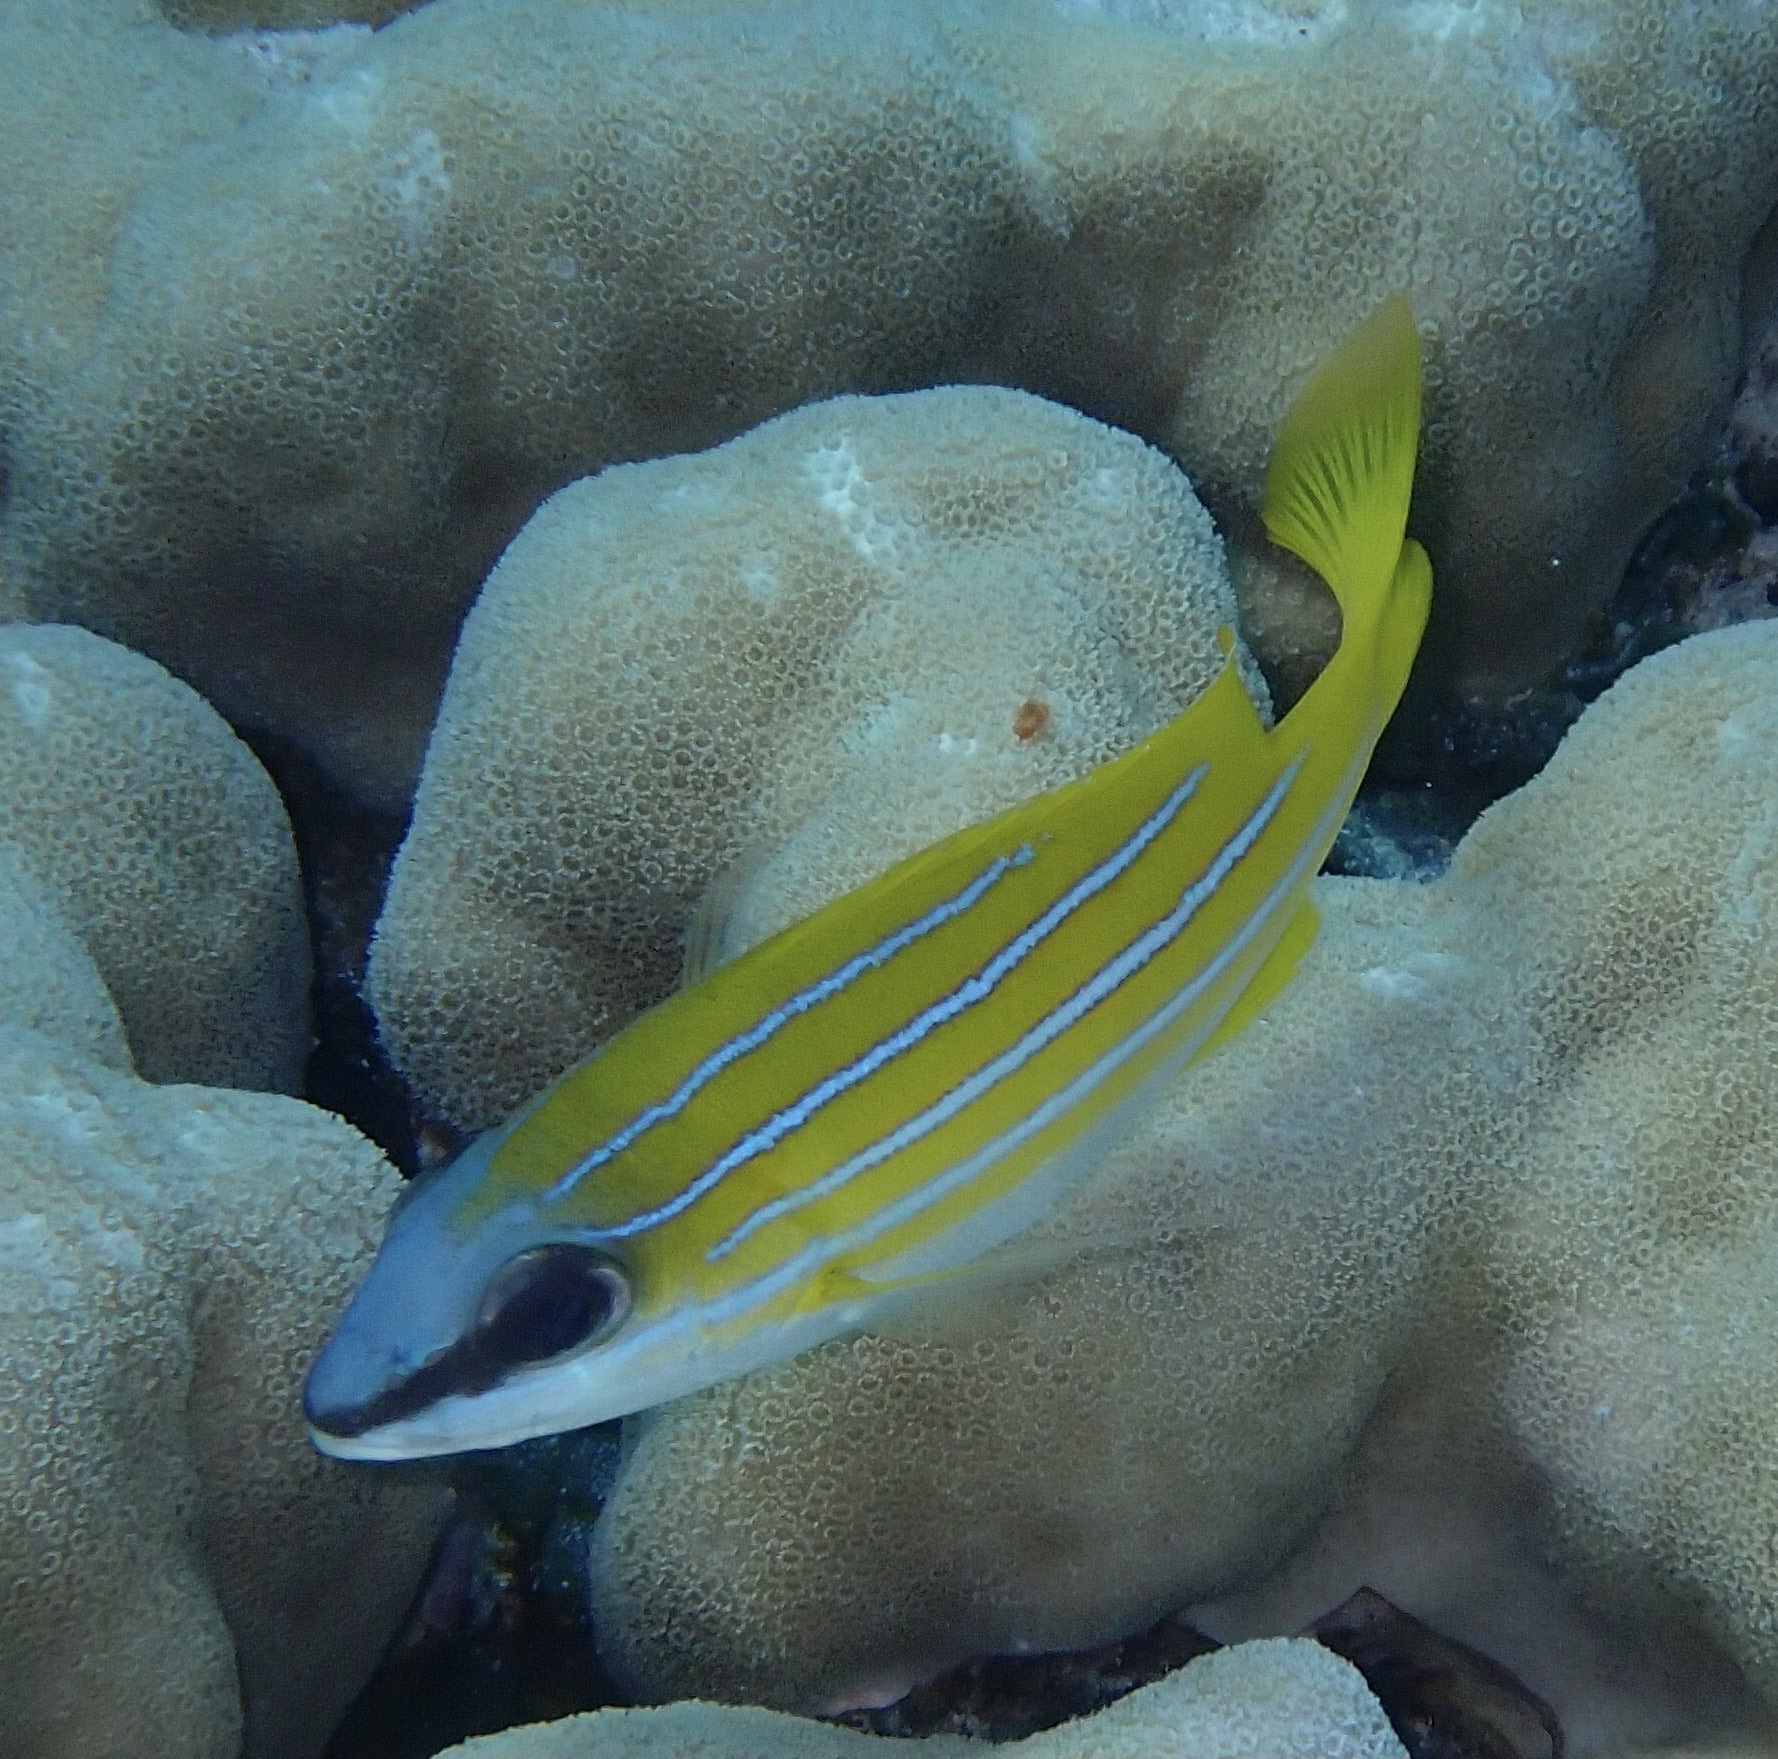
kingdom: Animalia
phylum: Chordata
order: Perciformes
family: Lutjanidae
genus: Lutjanus
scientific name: Lutjanus kasmira
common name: Common bluestripe snapper
